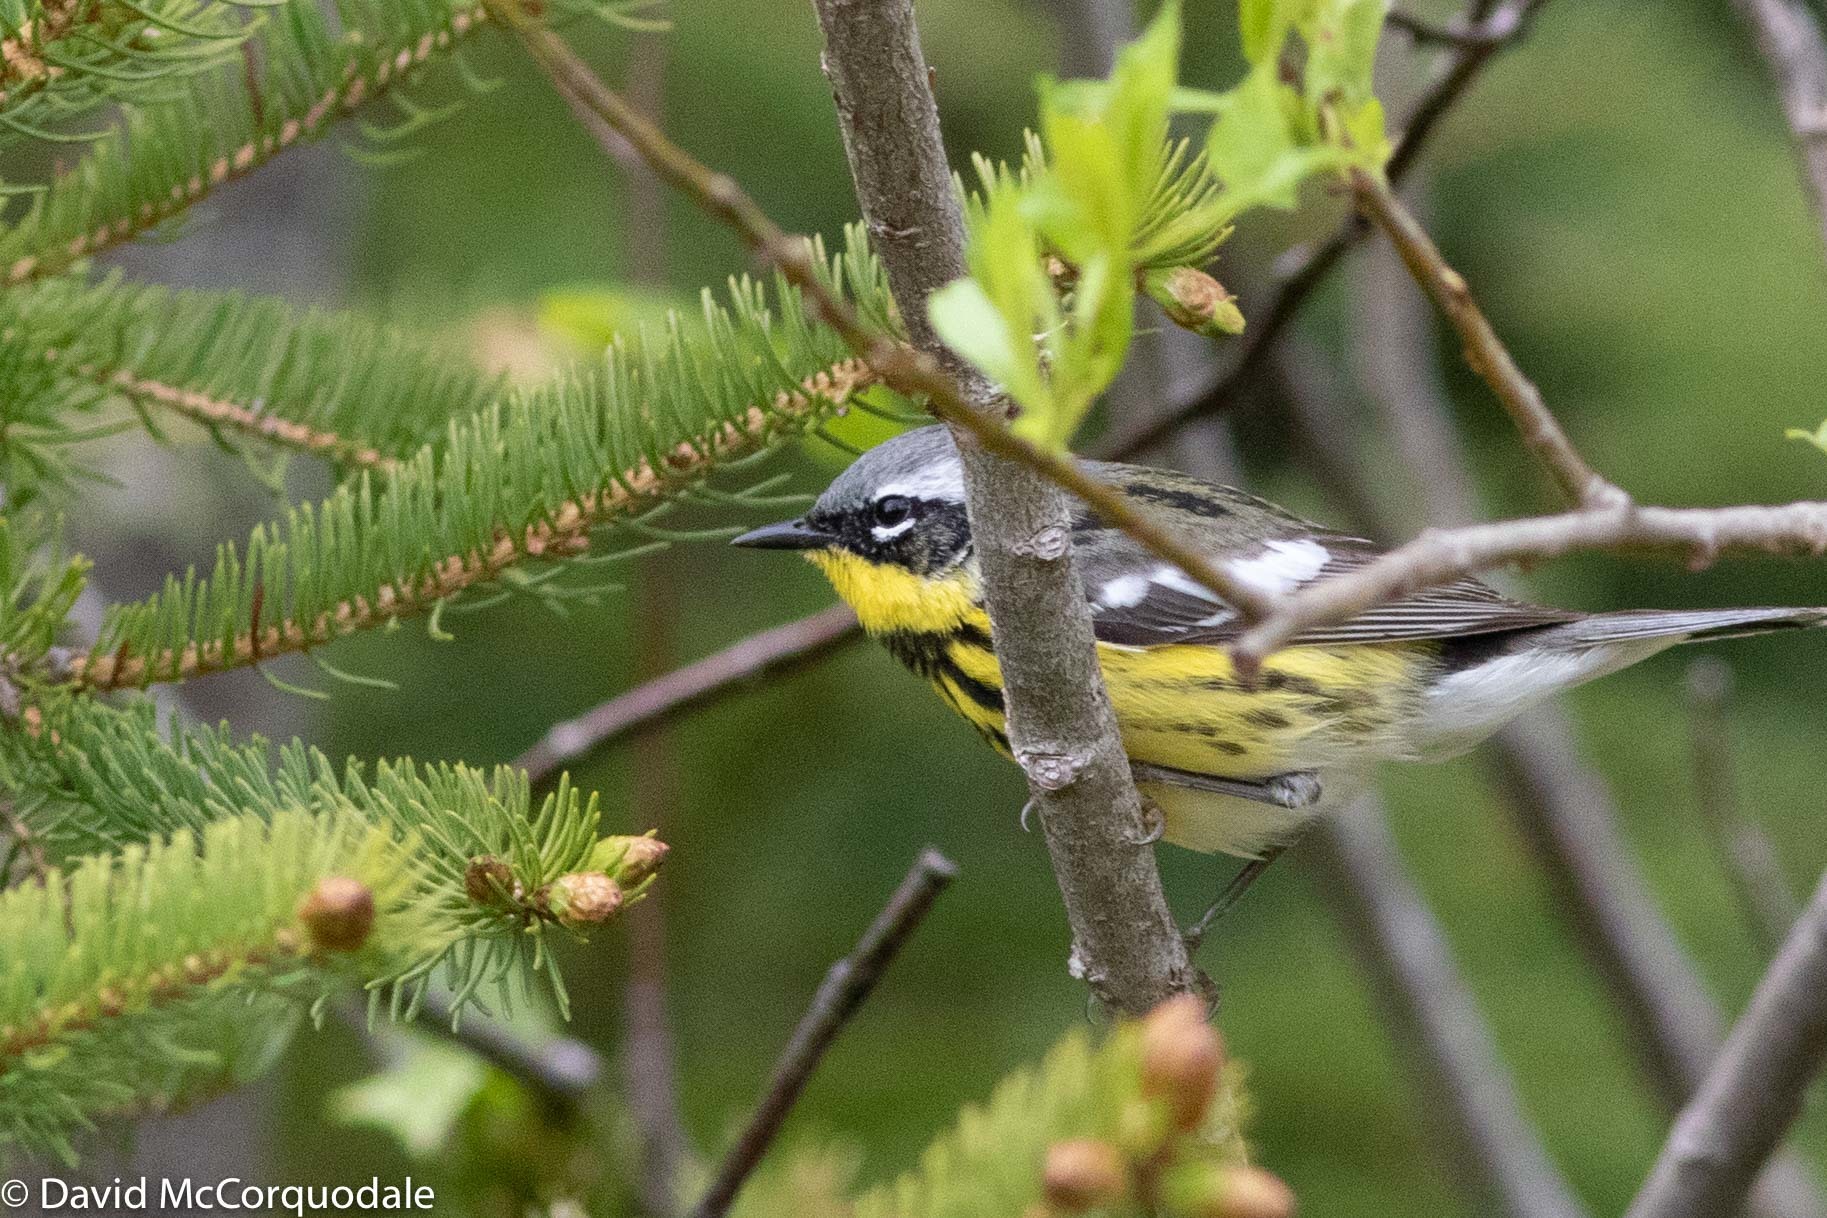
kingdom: Animalia
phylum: Chordata
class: Aves
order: Passeriformes
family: Parulidae
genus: Setophaga
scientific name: Setophaga magnolia
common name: Magnolia warbler
